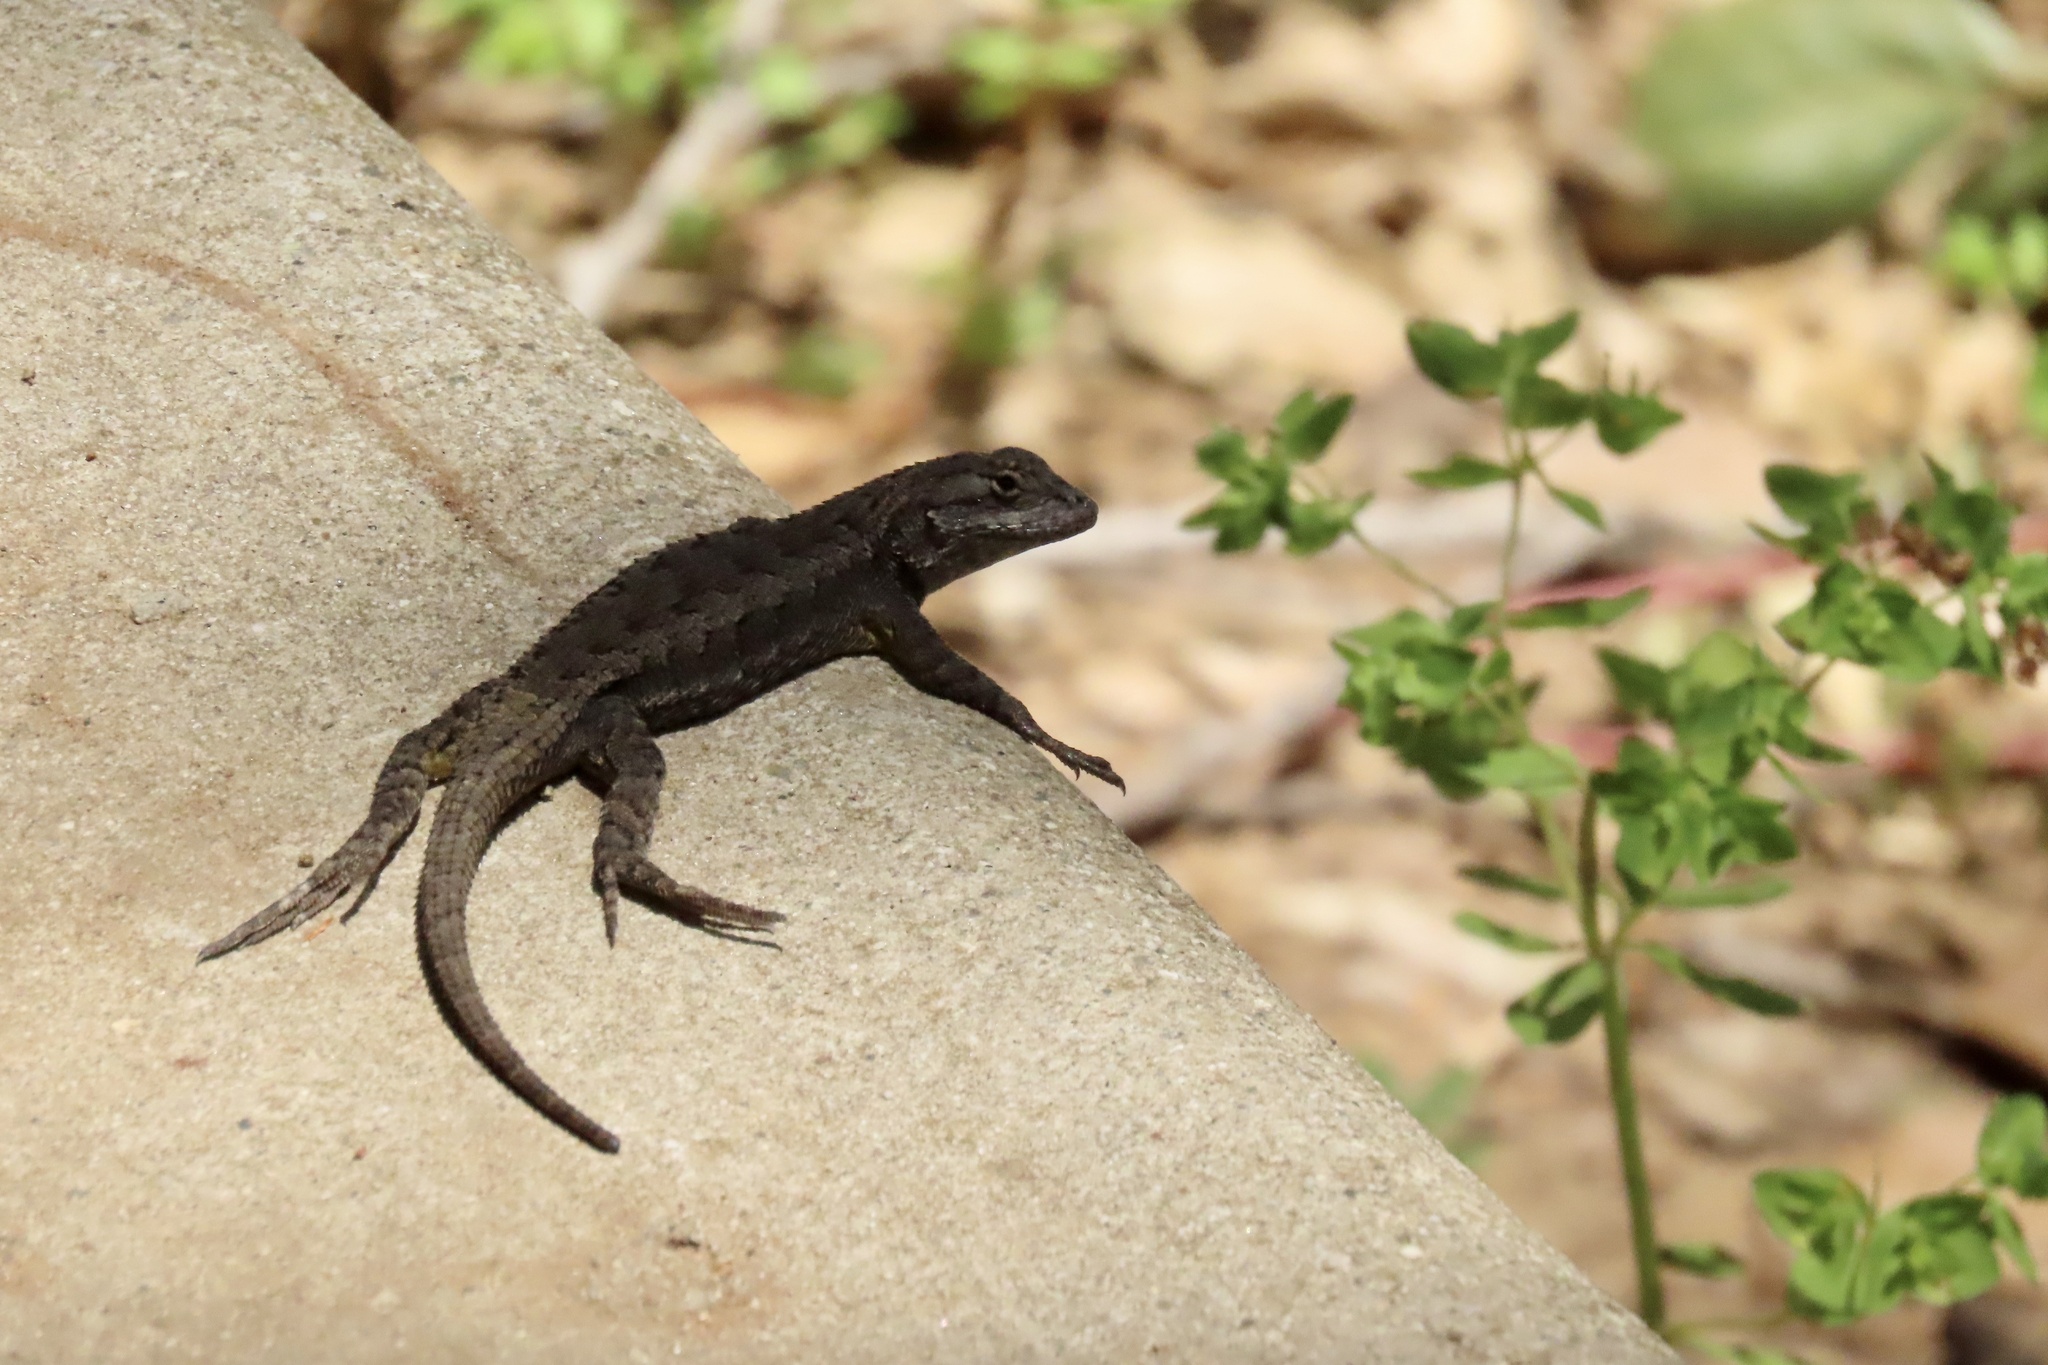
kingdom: Animalia
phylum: Chordata
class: Squamata
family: Phrynosomatidae
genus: Sceloporus
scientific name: Sceloporus occidentalis
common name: Western fence lizard
